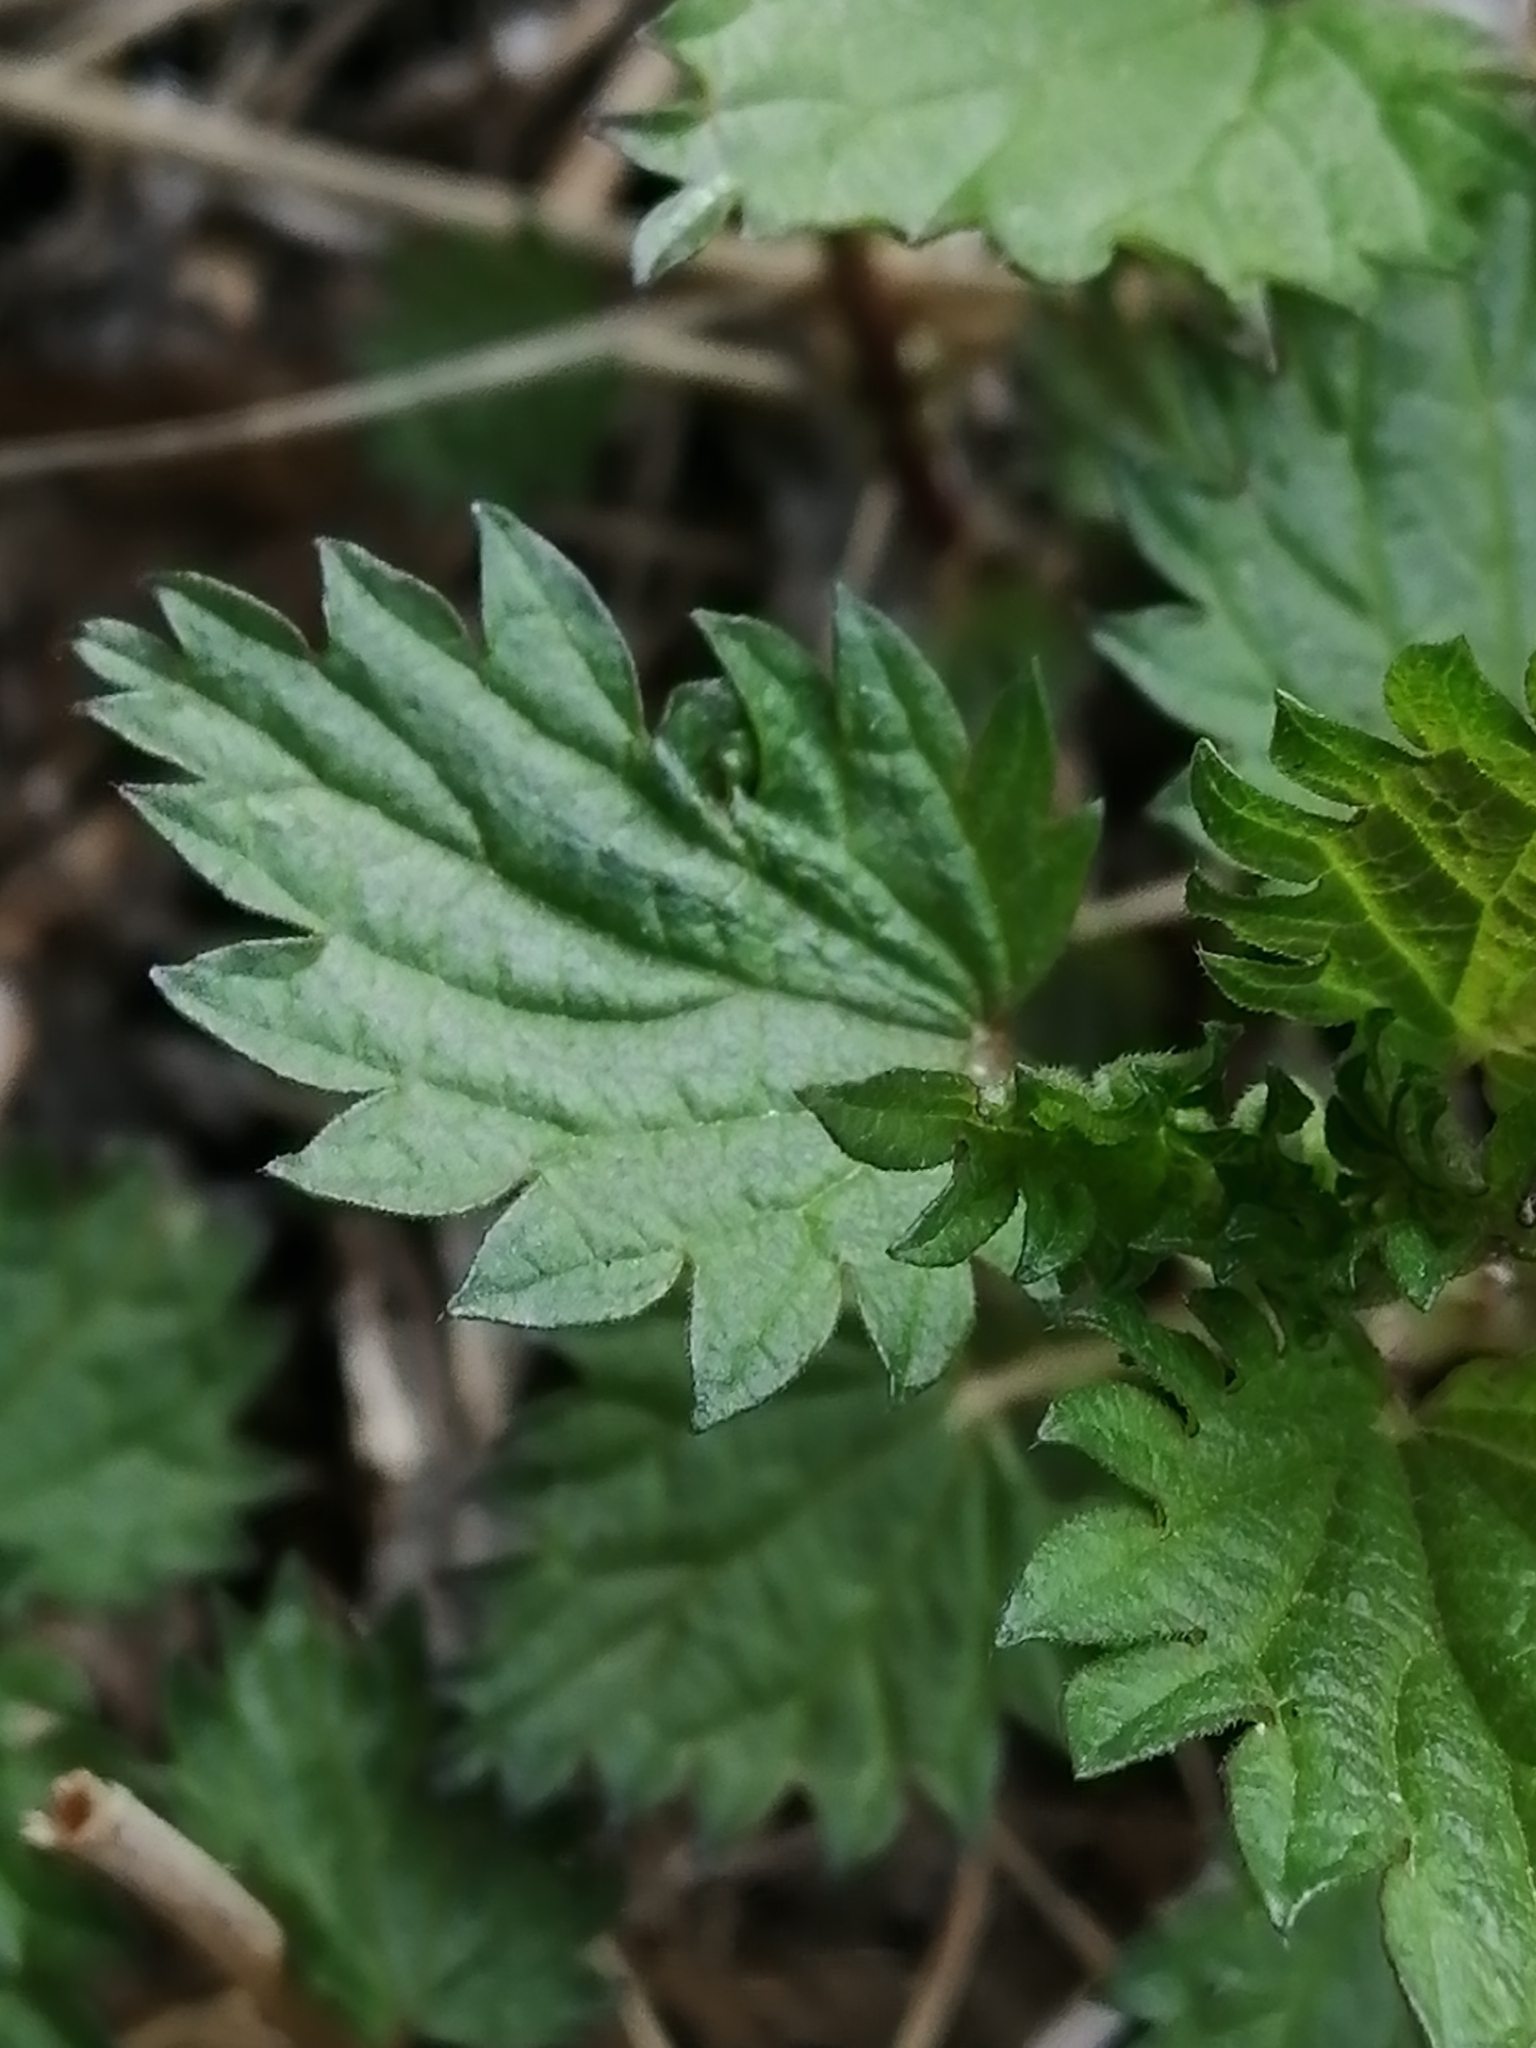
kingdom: Plantae
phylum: Tracheophyta
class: Magnoliopsida
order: Rosales
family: Urticaceae
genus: Urtica
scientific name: Urtica dioica
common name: Common nettle
